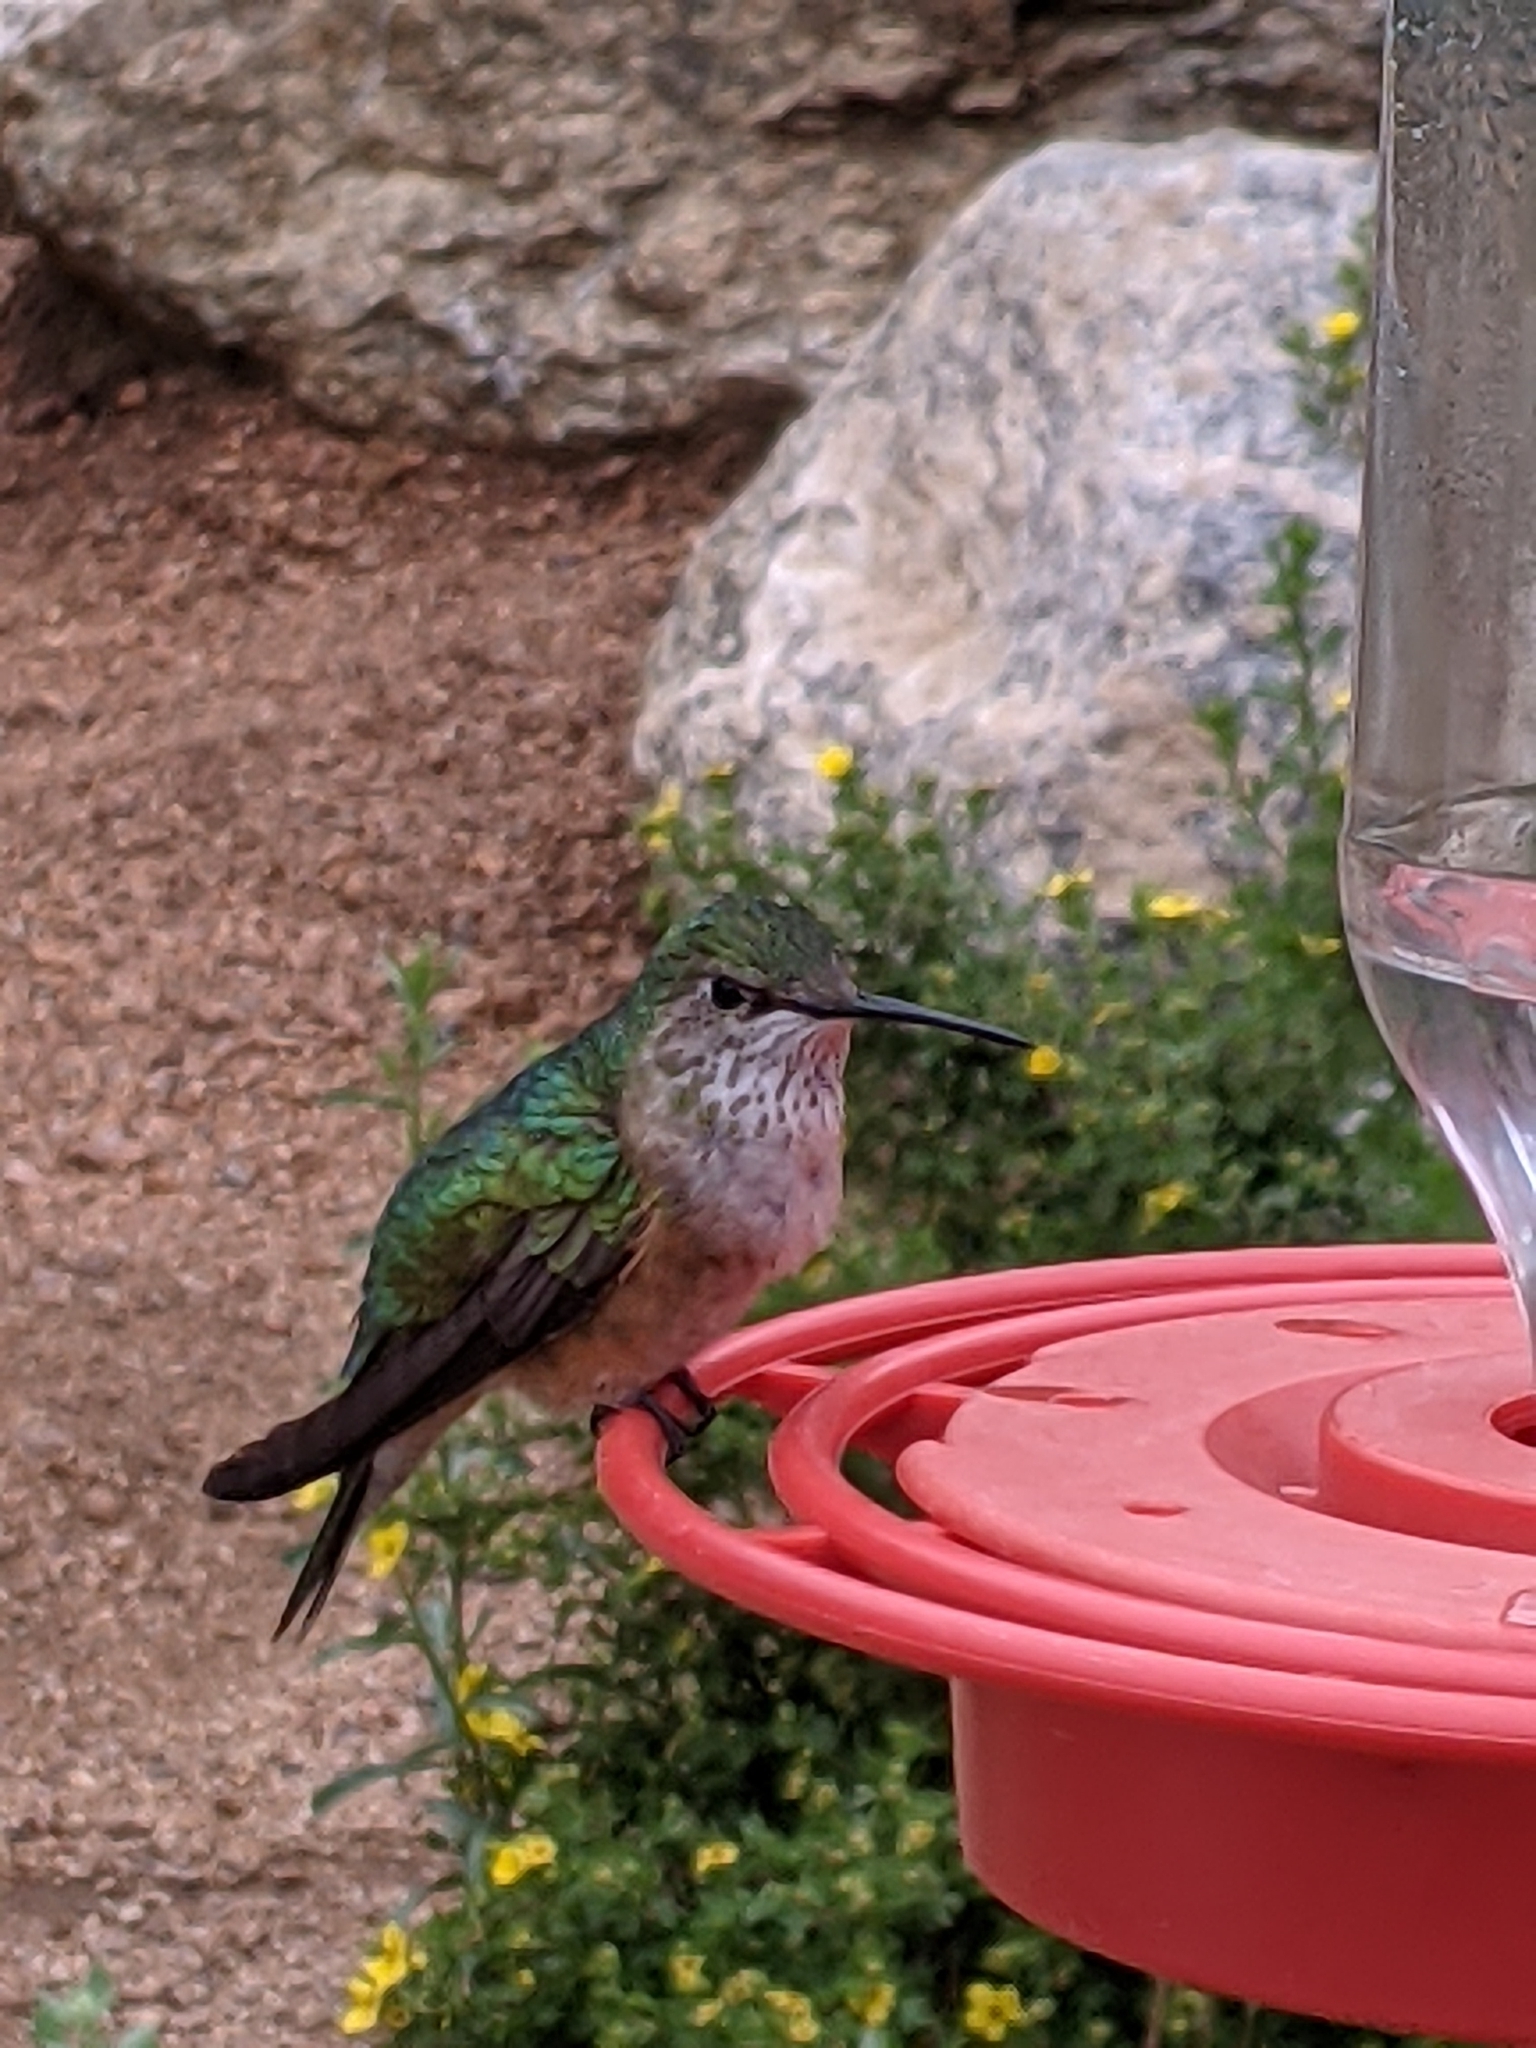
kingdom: Animalia
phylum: Chordata
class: Aves
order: Apodiformes
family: Trochilidae
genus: Selasphorus
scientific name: Selasphorus platycercus
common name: Broad-tailed hummingbird
